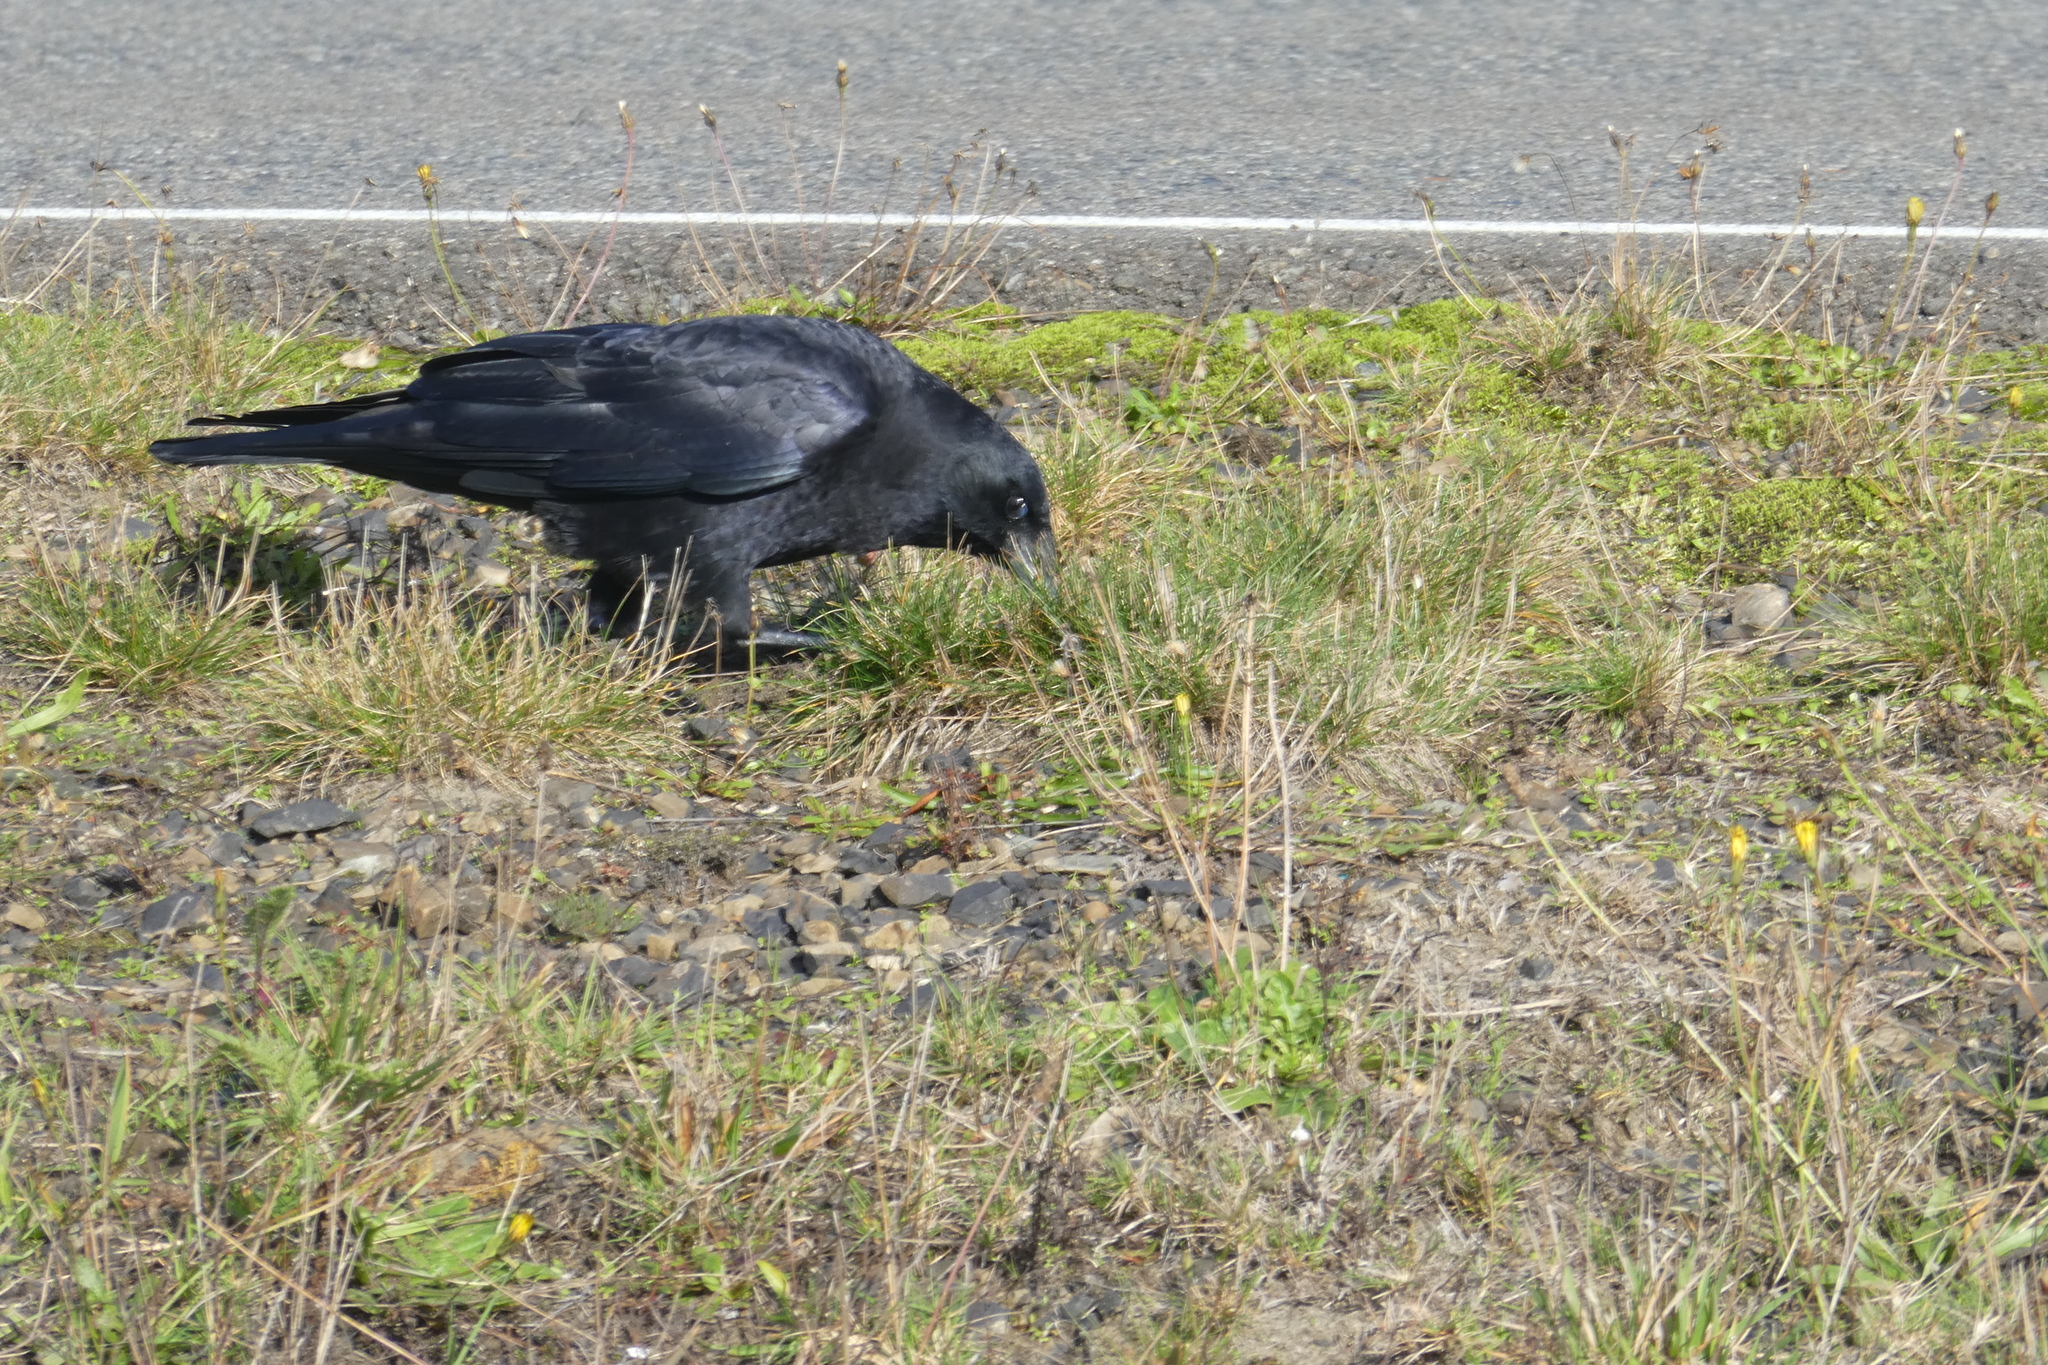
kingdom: Animalia
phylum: Chordata
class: Aves
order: Passeriformes
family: Corvidae
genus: Corvus
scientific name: Corvus brachyrhynchos
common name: American crow
